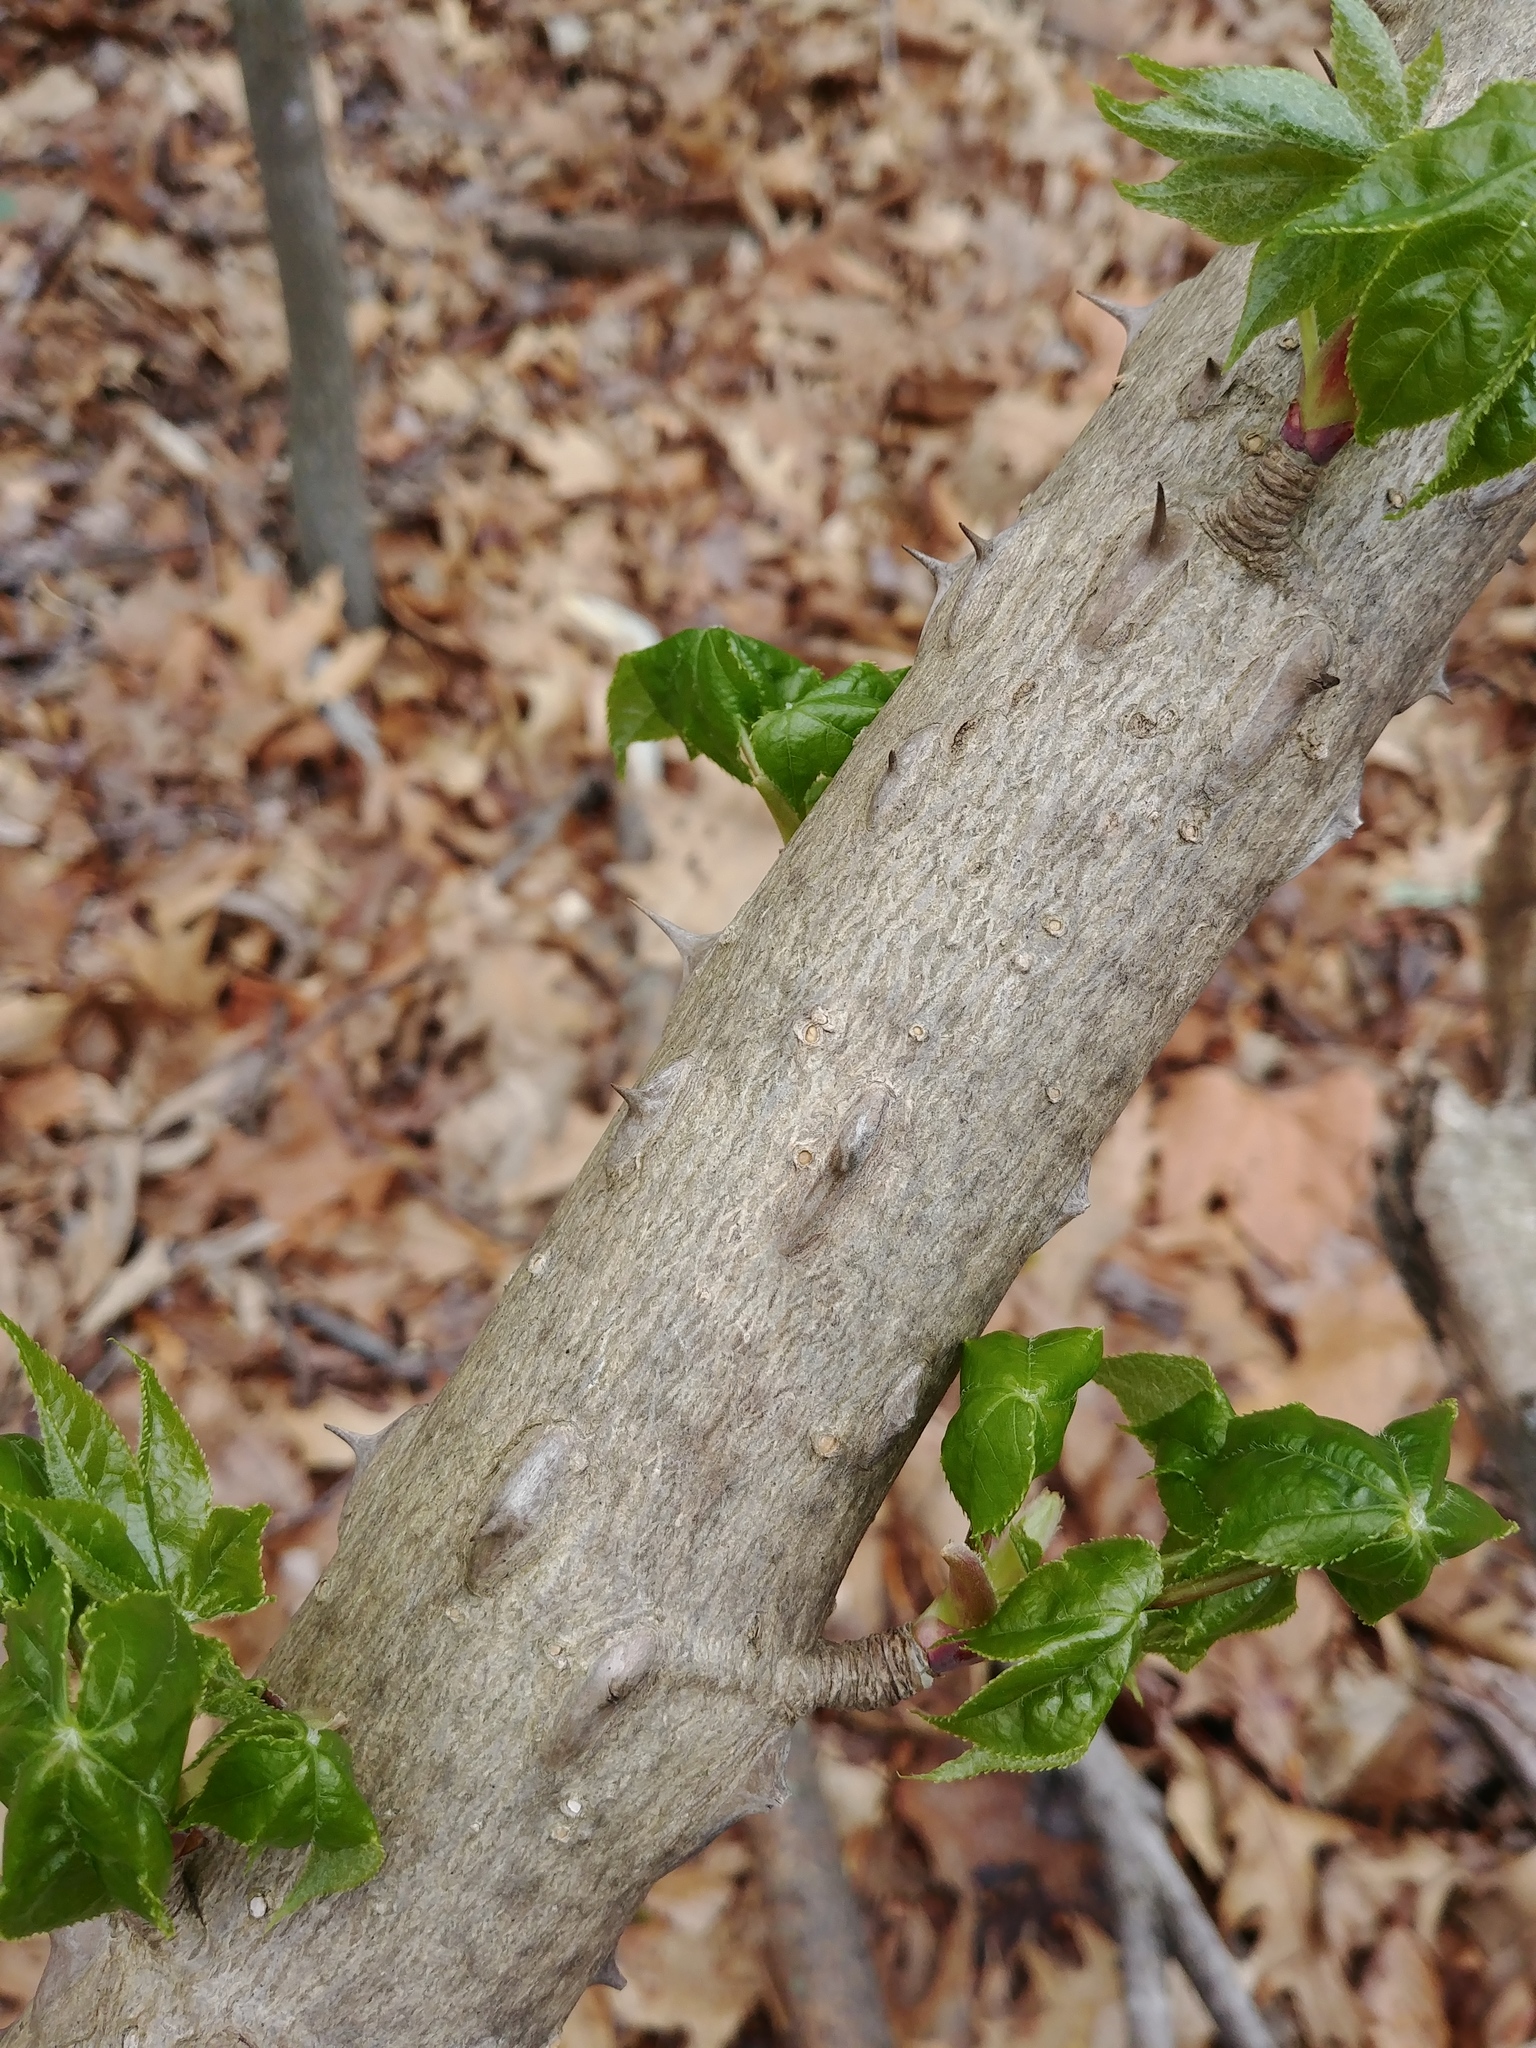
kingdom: Plantae
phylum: Tracheophyta
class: Magnoliopsida
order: Apiales
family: Araliaceae
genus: Kalopanax
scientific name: Kalopanax septemlobus
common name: Castor aralia
